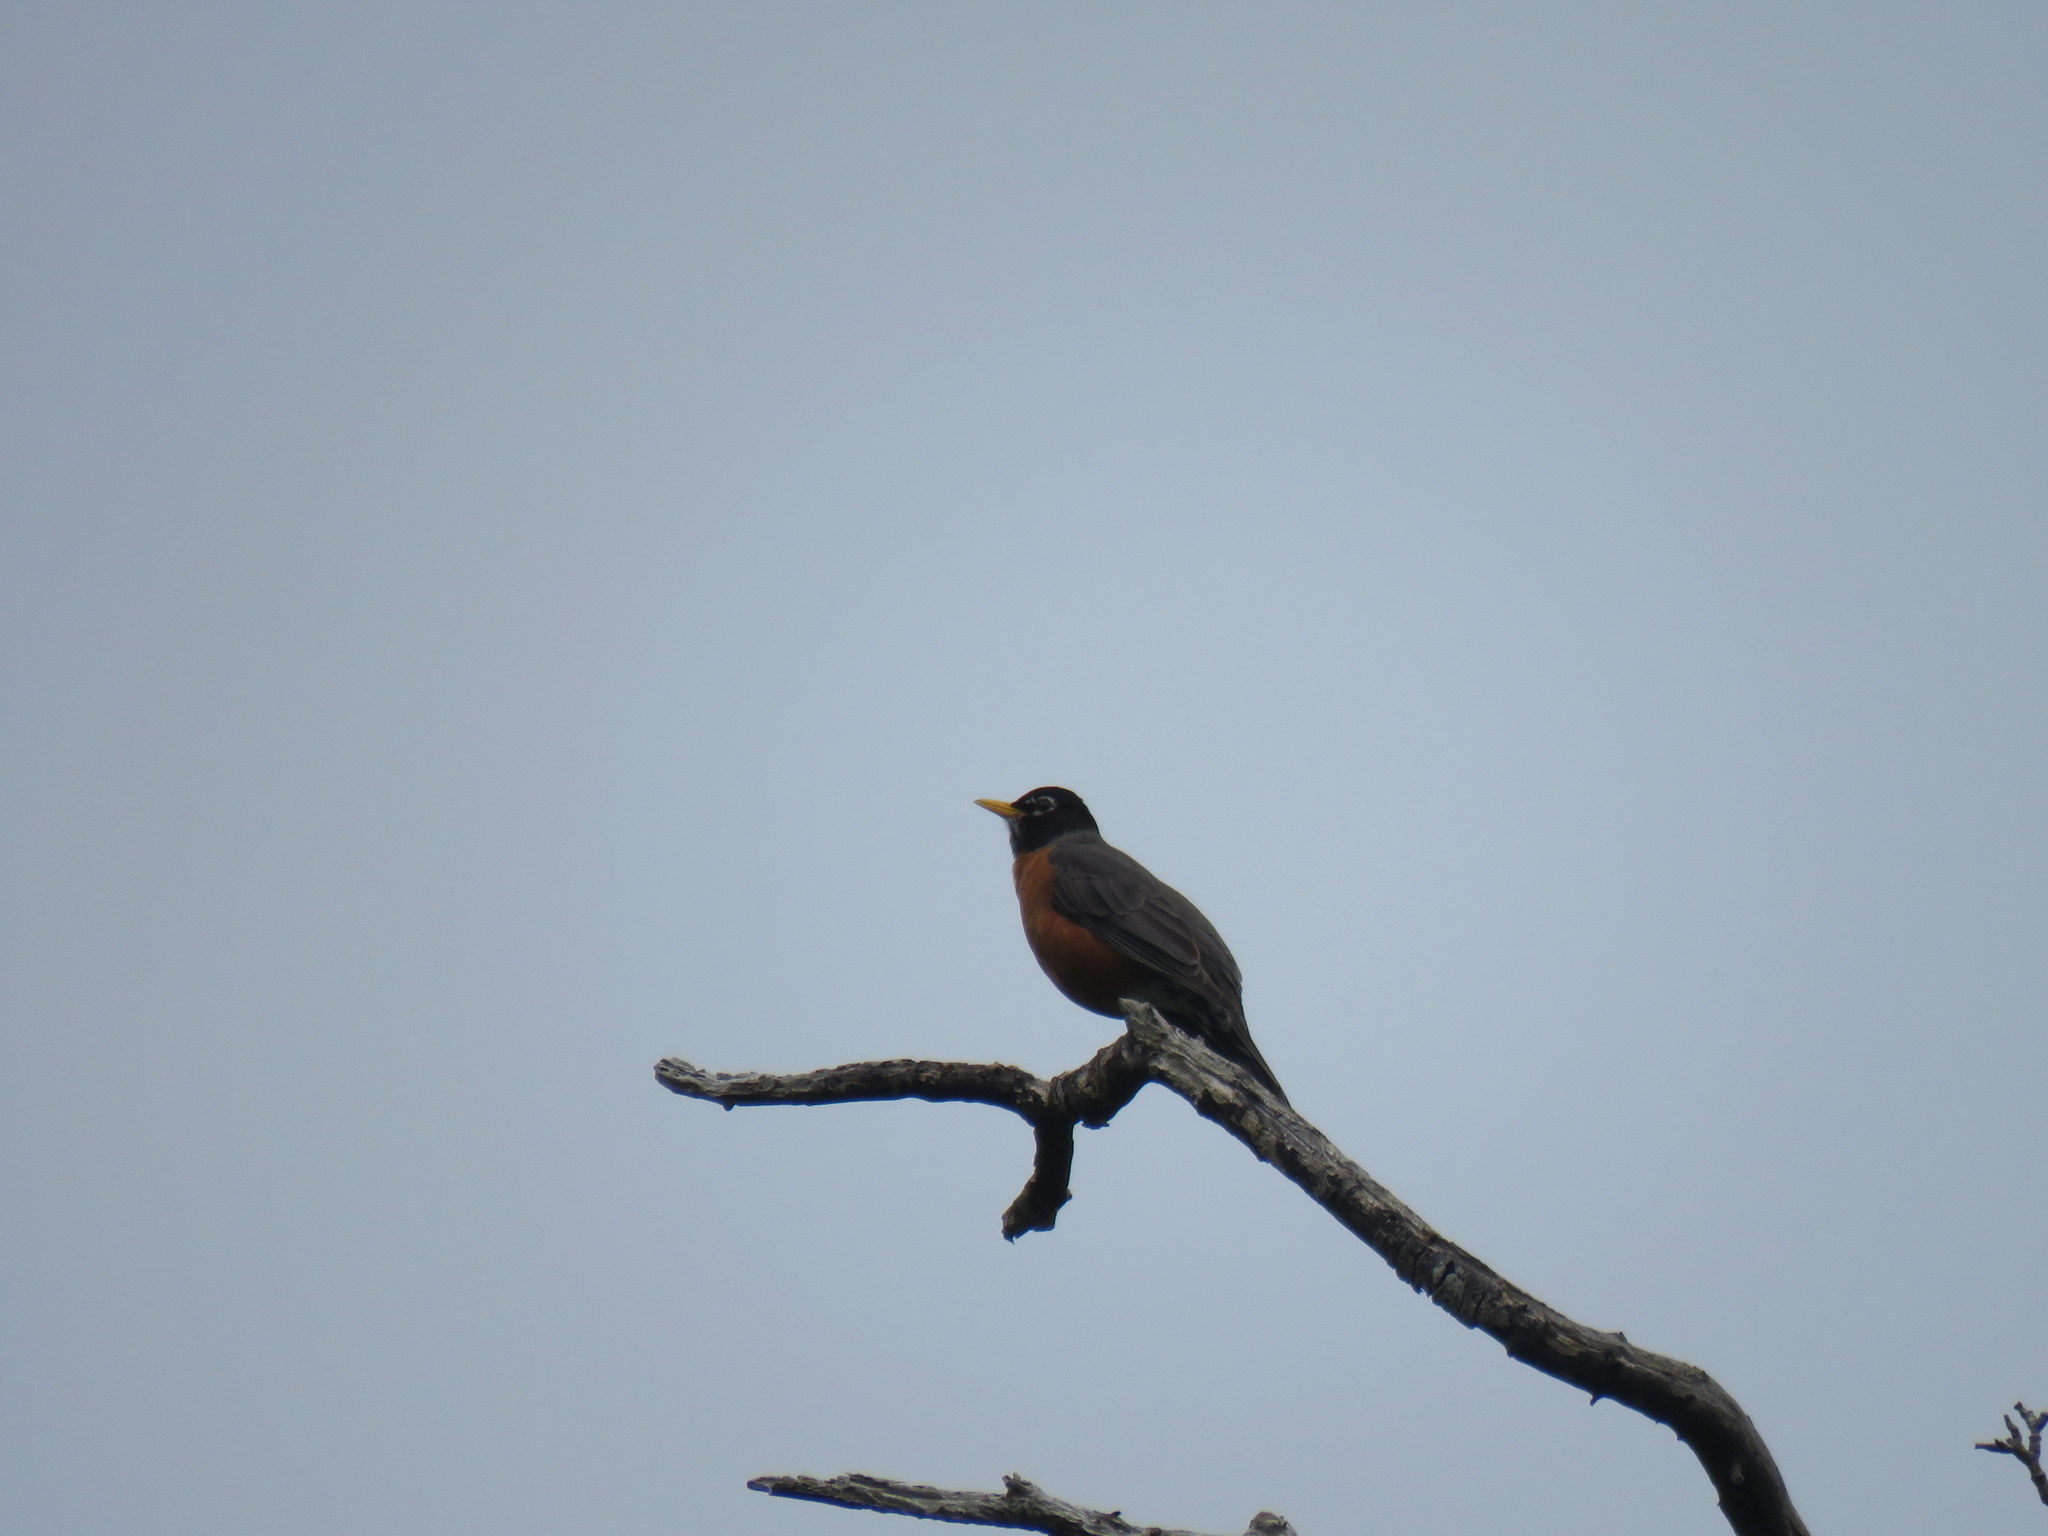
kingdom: Animalia
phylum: Chordata
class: Aves
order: Passeriformes
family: Turdidae
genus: Turdus
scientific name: Turdus migratorius
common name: American robin
